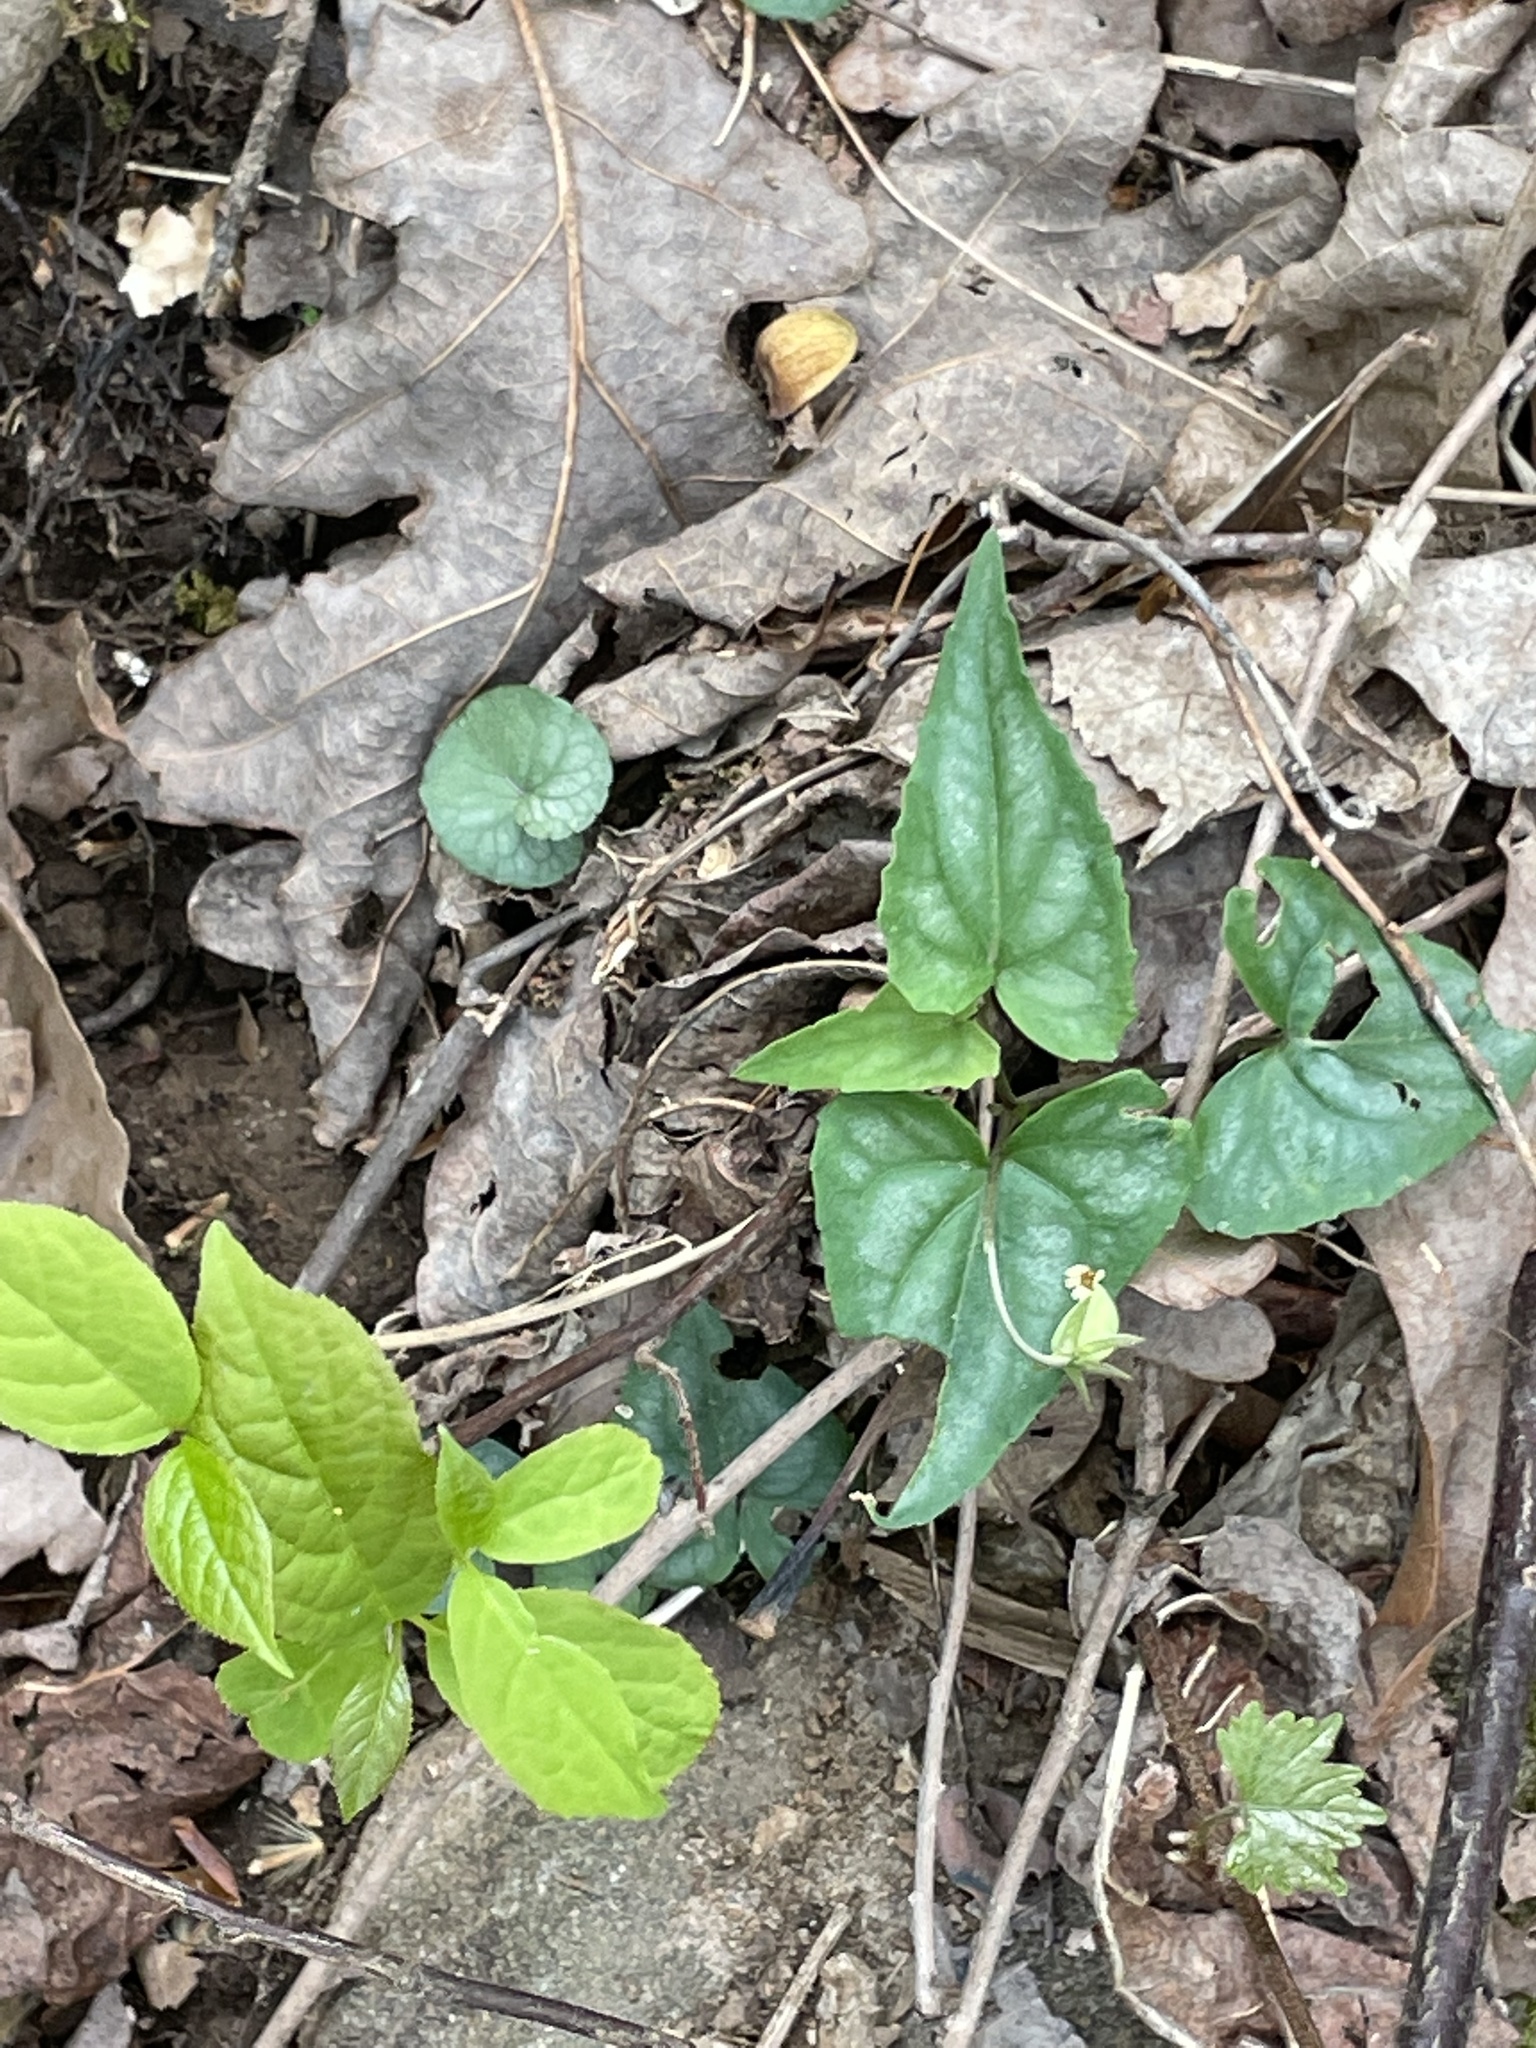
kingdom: Plantae
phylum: Tracheophyta
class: Magnoliopsida
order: Malpighiales
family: Violaceae
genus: Viola
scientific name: Viola hastata
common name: Spear-leaf violet
